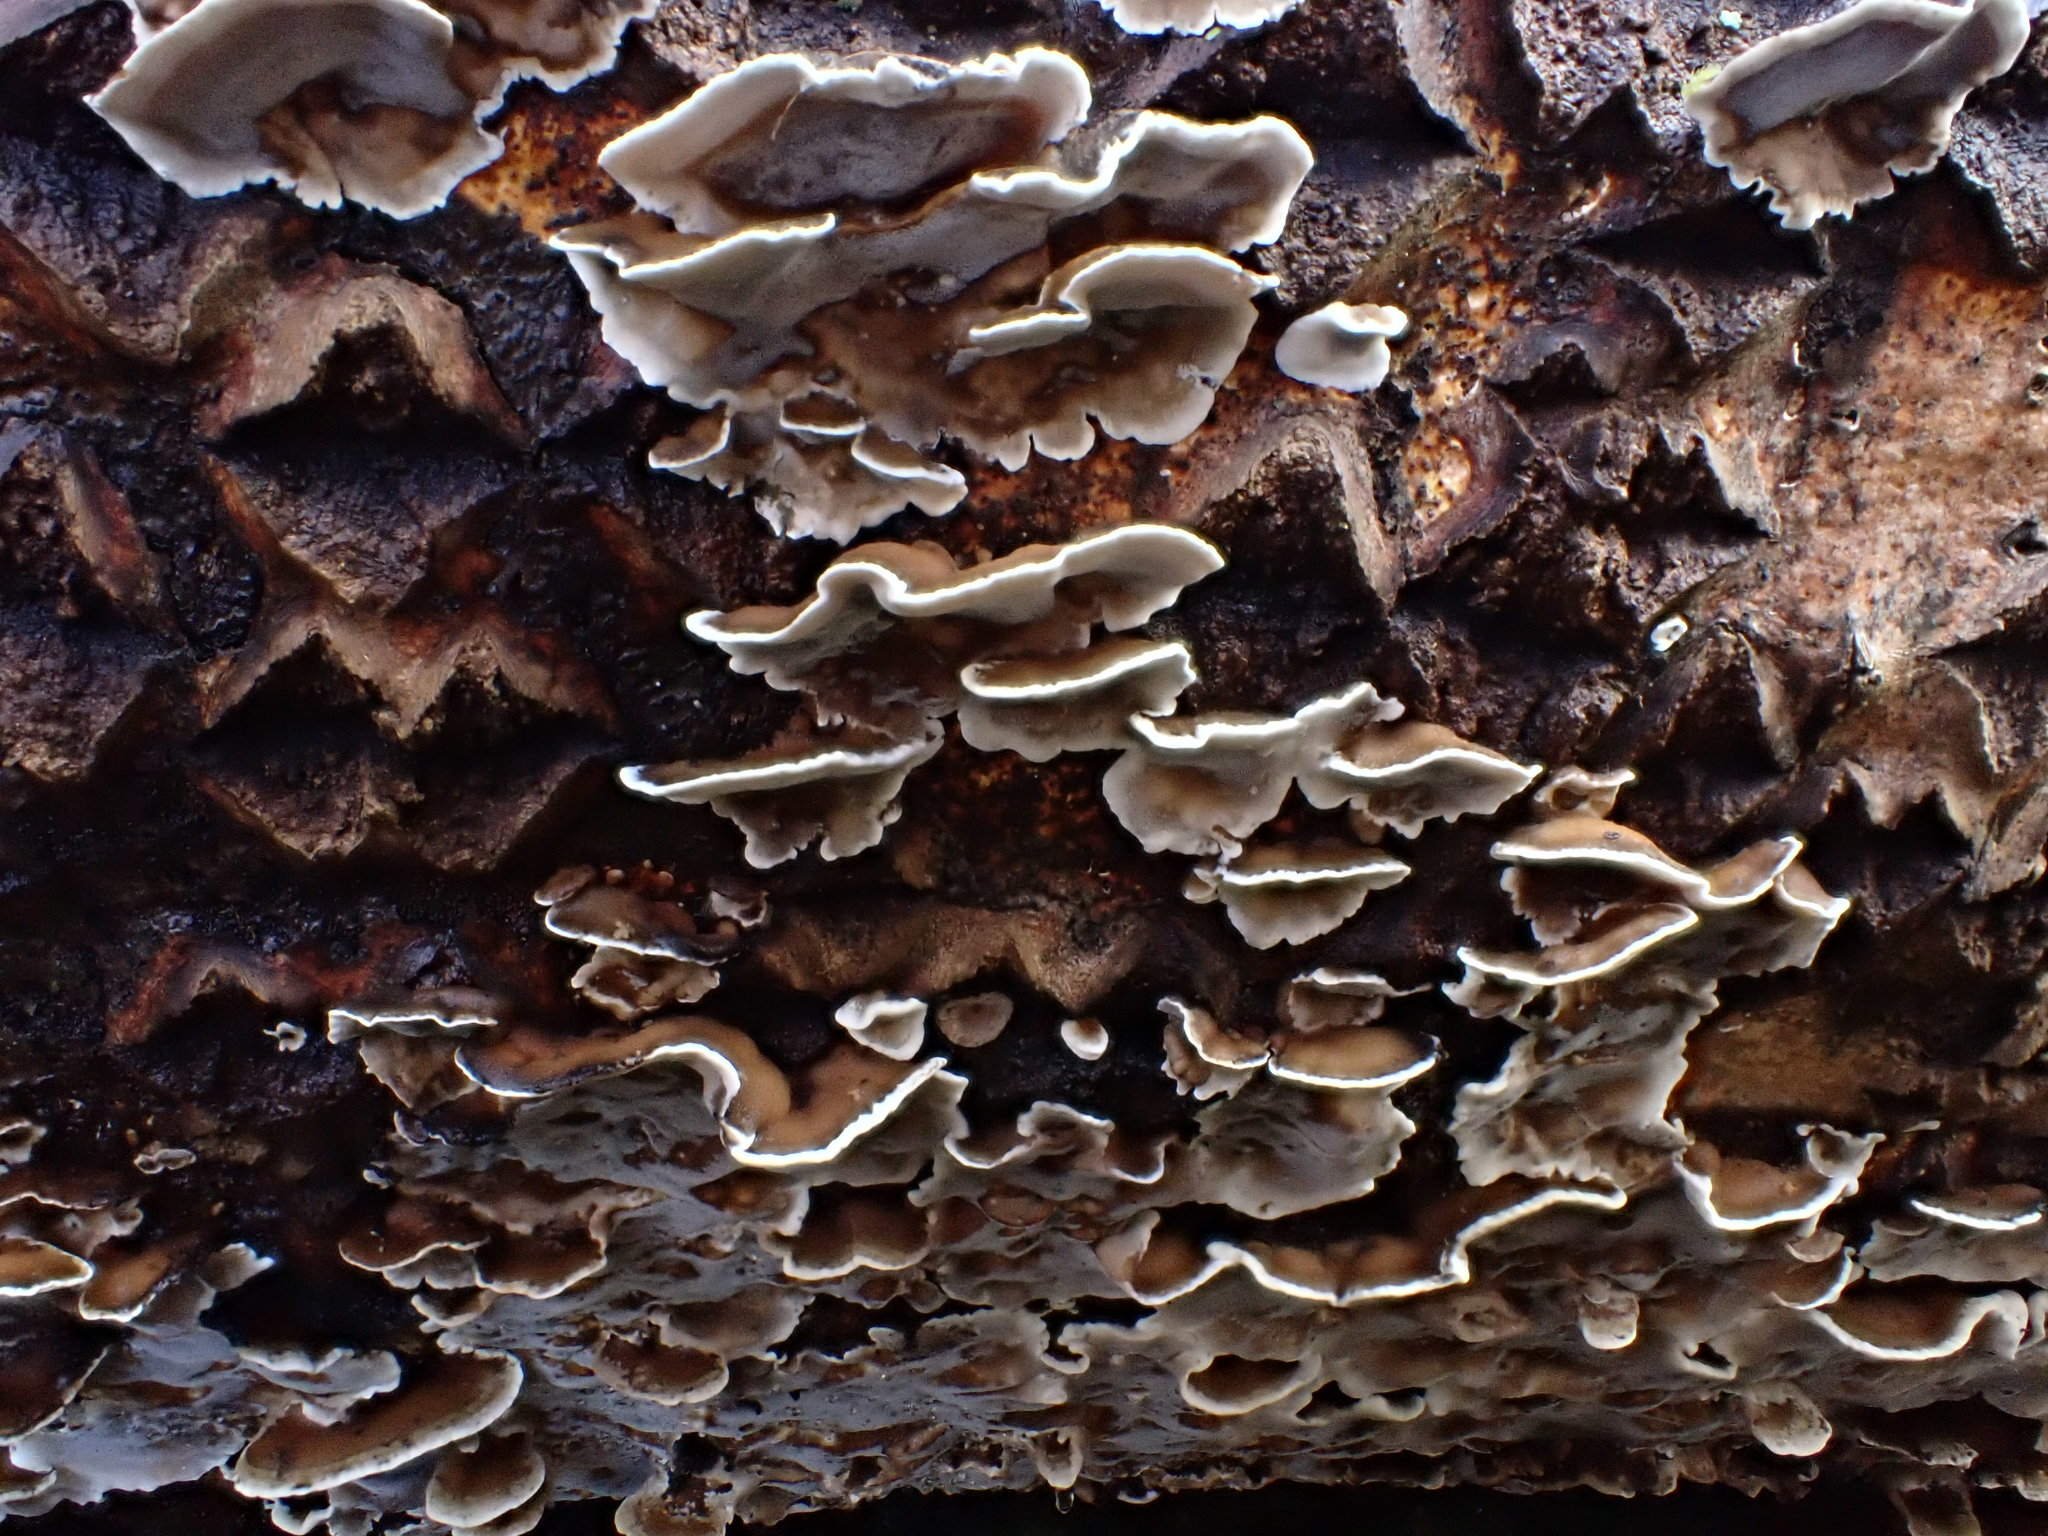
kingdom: Fungi
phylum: Basidiomycota
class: Agaricomycetes
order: Polyporales
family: Phanerochaetaceae
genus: Bjerkandera
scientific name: Bjerkandera adusta
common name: Smoky bracket
